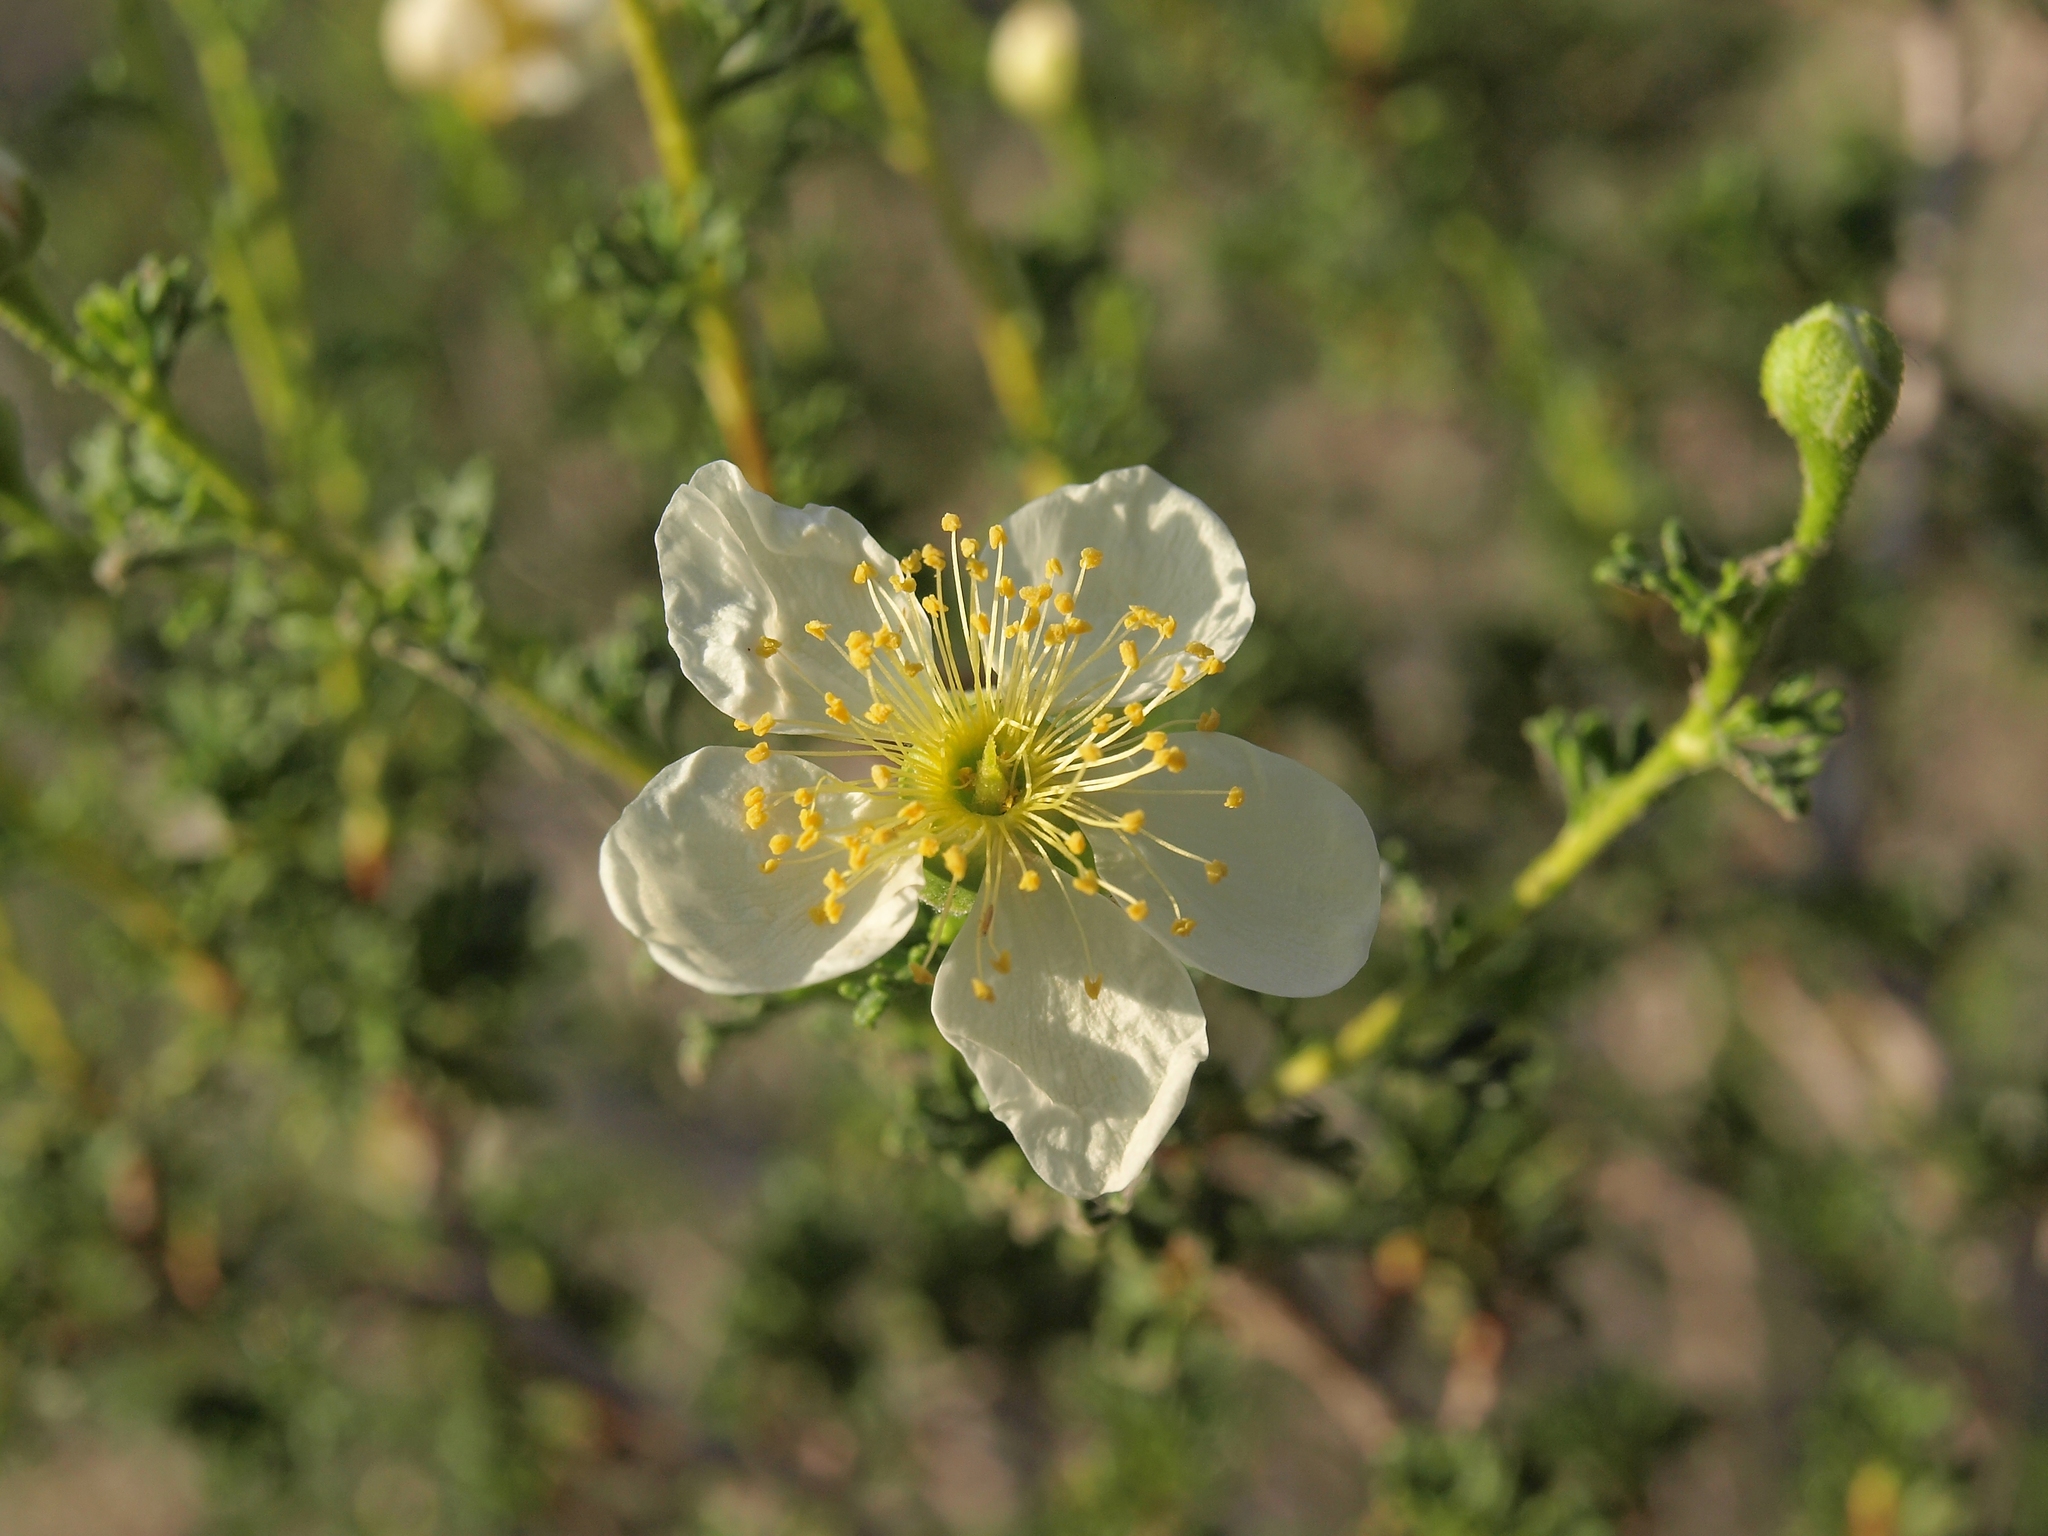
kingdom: Plantae
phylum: Tracheophyta
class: Magnoliopsida
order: Rosales
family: Rosaceae
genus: Purshia
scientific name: Purshia stansburiana
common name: Stansbury's cliffrose
